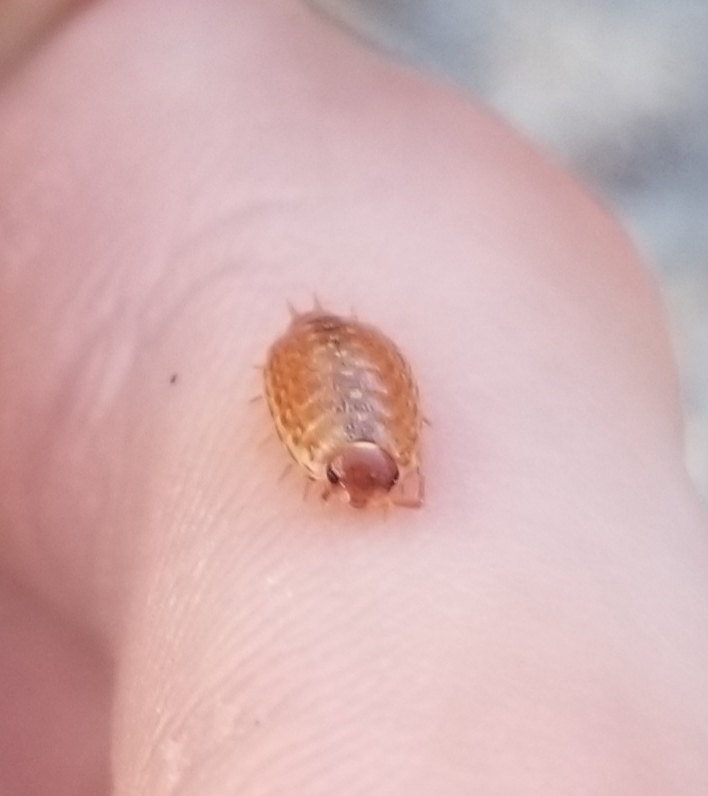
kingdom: Animalia
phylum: Arthropoda
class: Malacostraca
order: Isopoda
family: Philosciidae
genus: Philoscia
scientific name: Philoscia muscorum
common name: Common striped woodlouse
